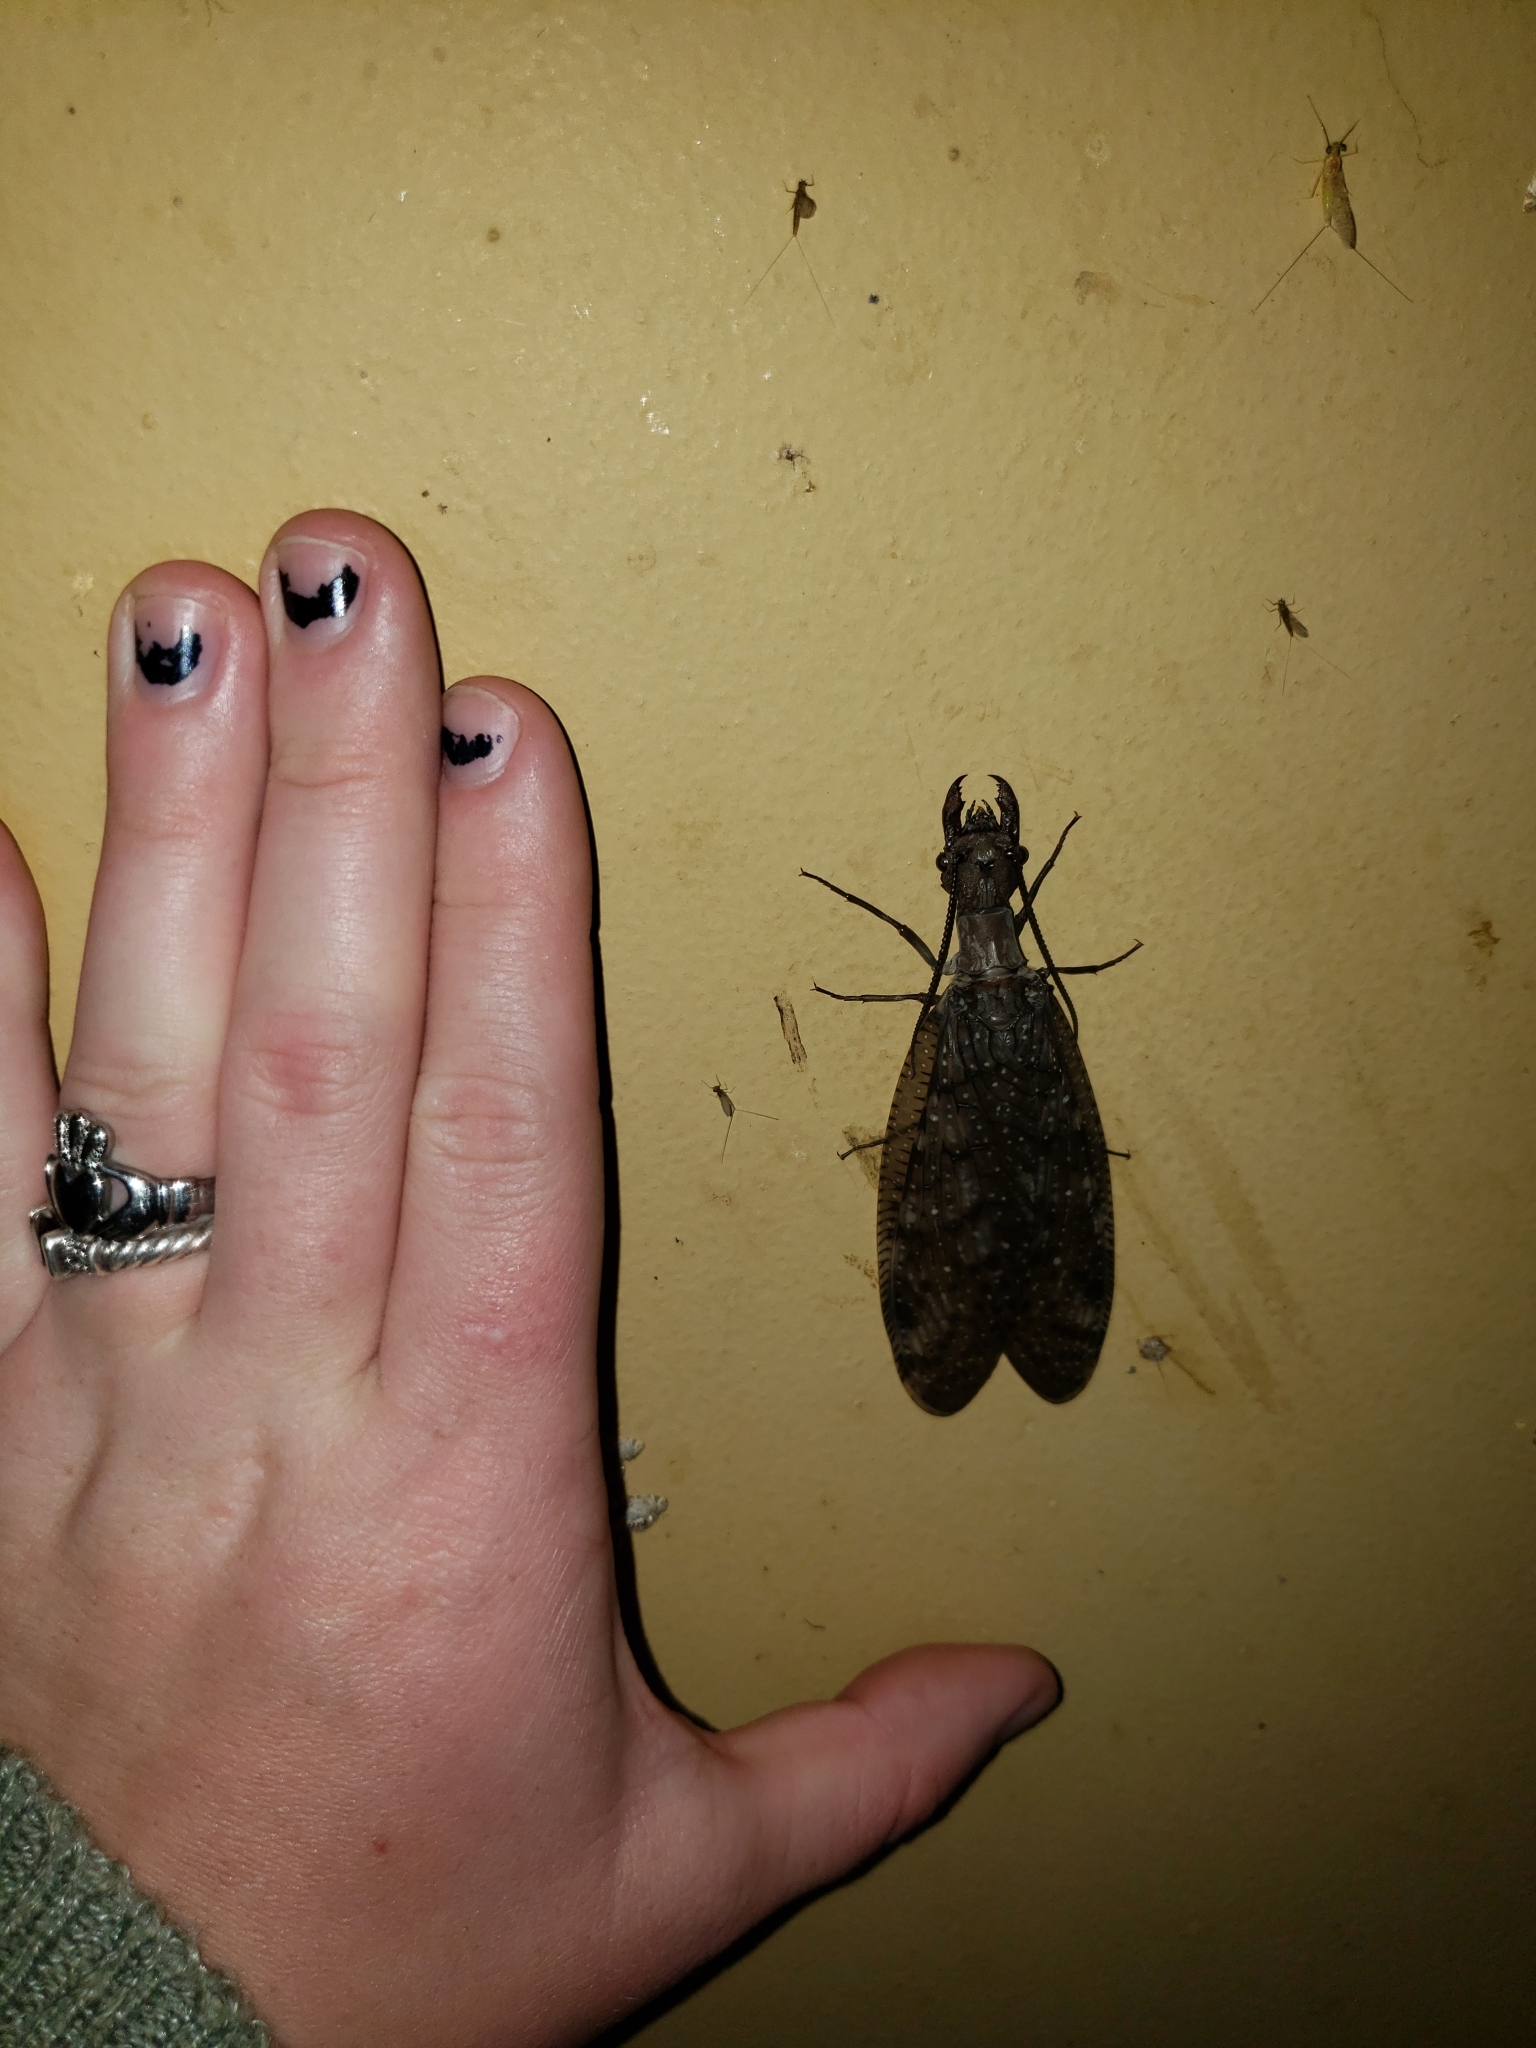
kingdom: Animalia
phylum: Arthropoda
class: Insecta
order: Megaloptera
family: Corydalidae
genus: Corydalus
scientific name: Corydalus cornutus
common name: Dobsonfly
